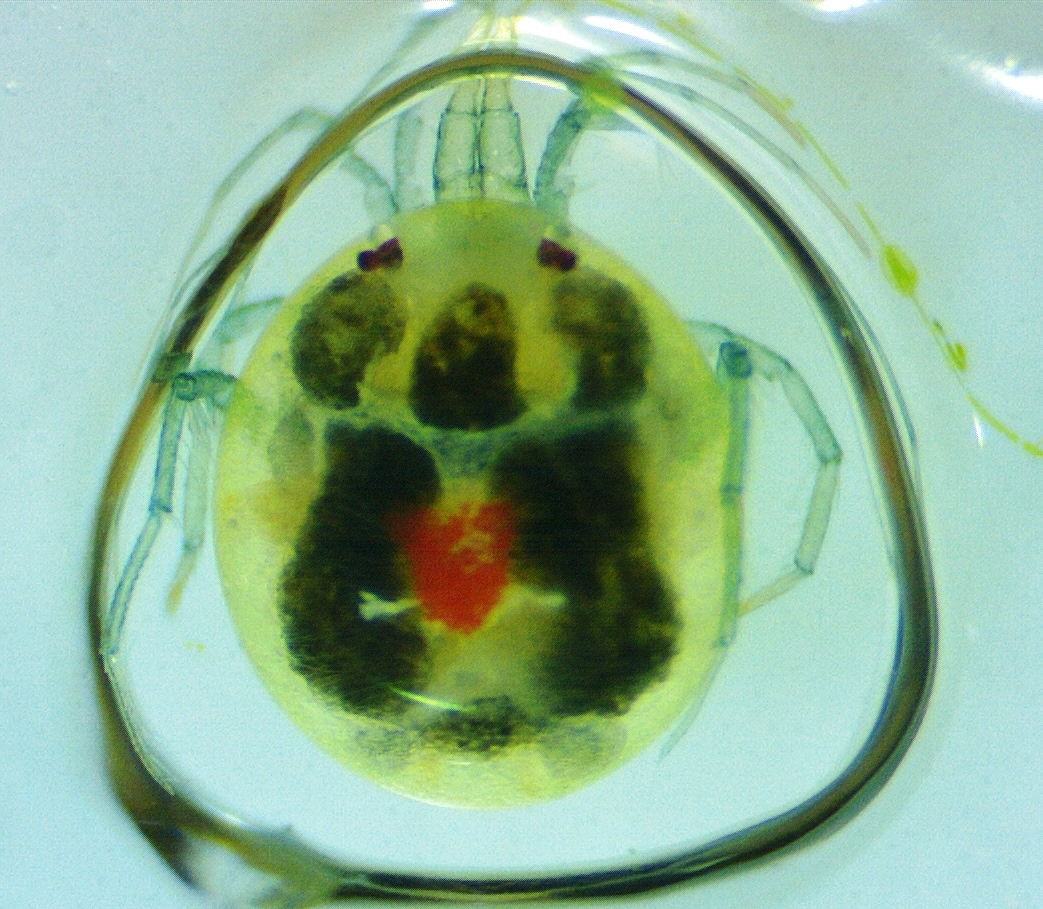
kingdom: Animalia
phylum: Arthropoda
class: Arachnida
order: Trombidiformes
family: Limnesiidae
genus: Limnesia
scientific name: Limnesia
